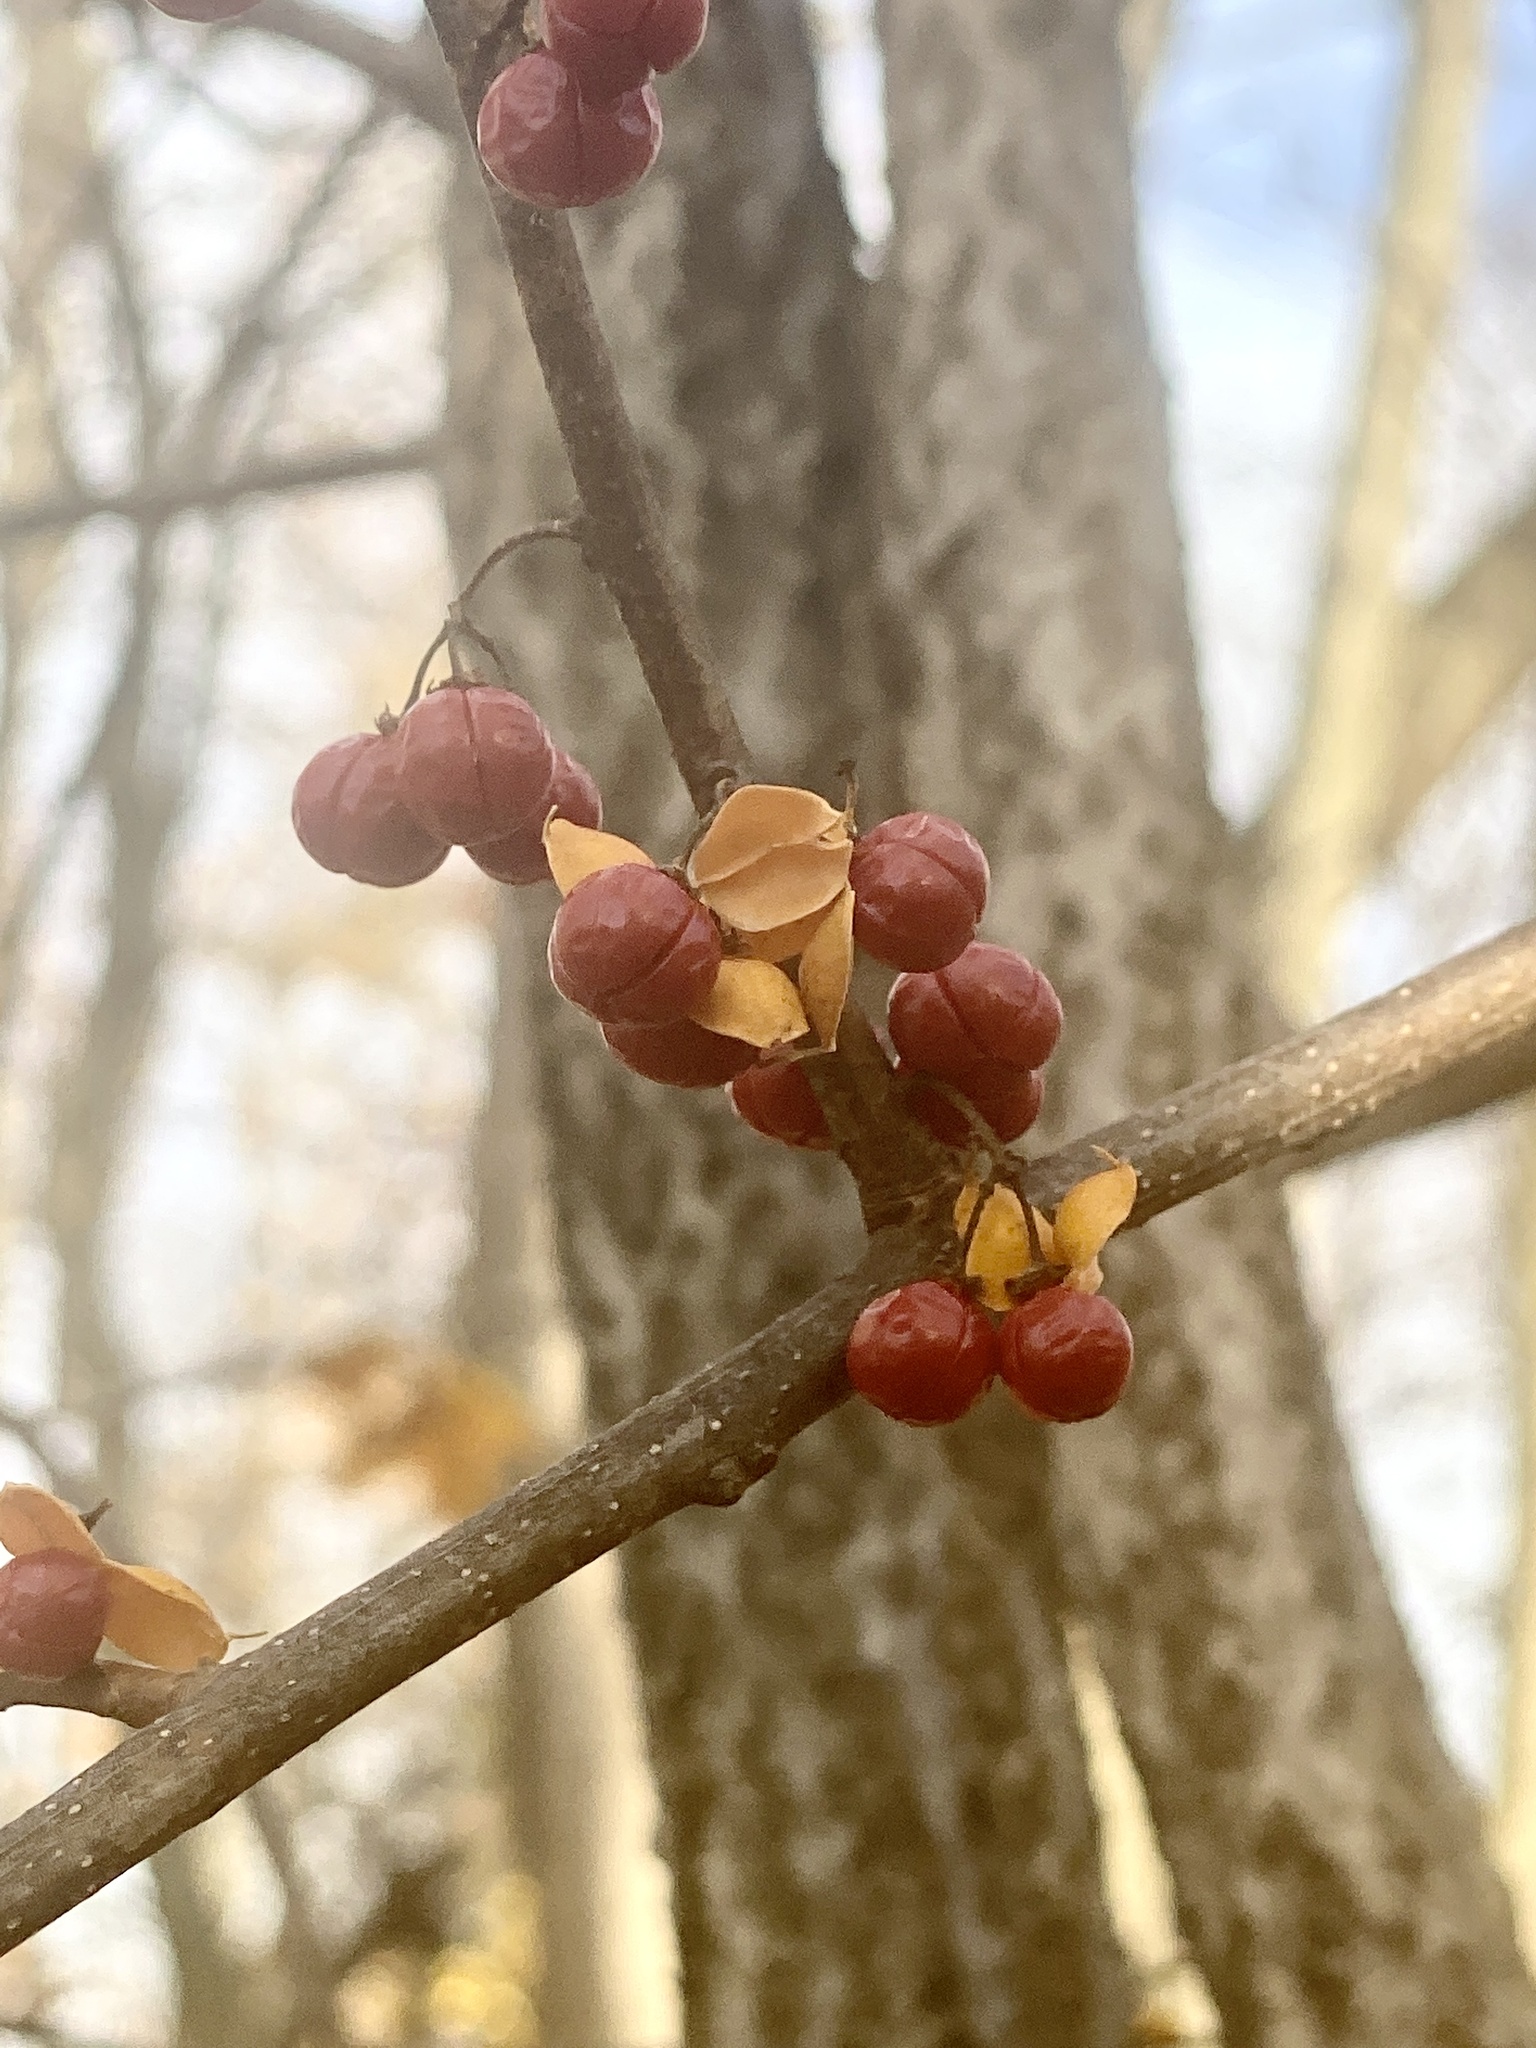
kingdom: Plantae
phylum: Tracheophyta
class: Magnoliopsida
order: Celastrales
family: Celastraceae
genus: Celastrus
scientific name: Celastrus orbiculatus
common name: Oriental bittersweet
